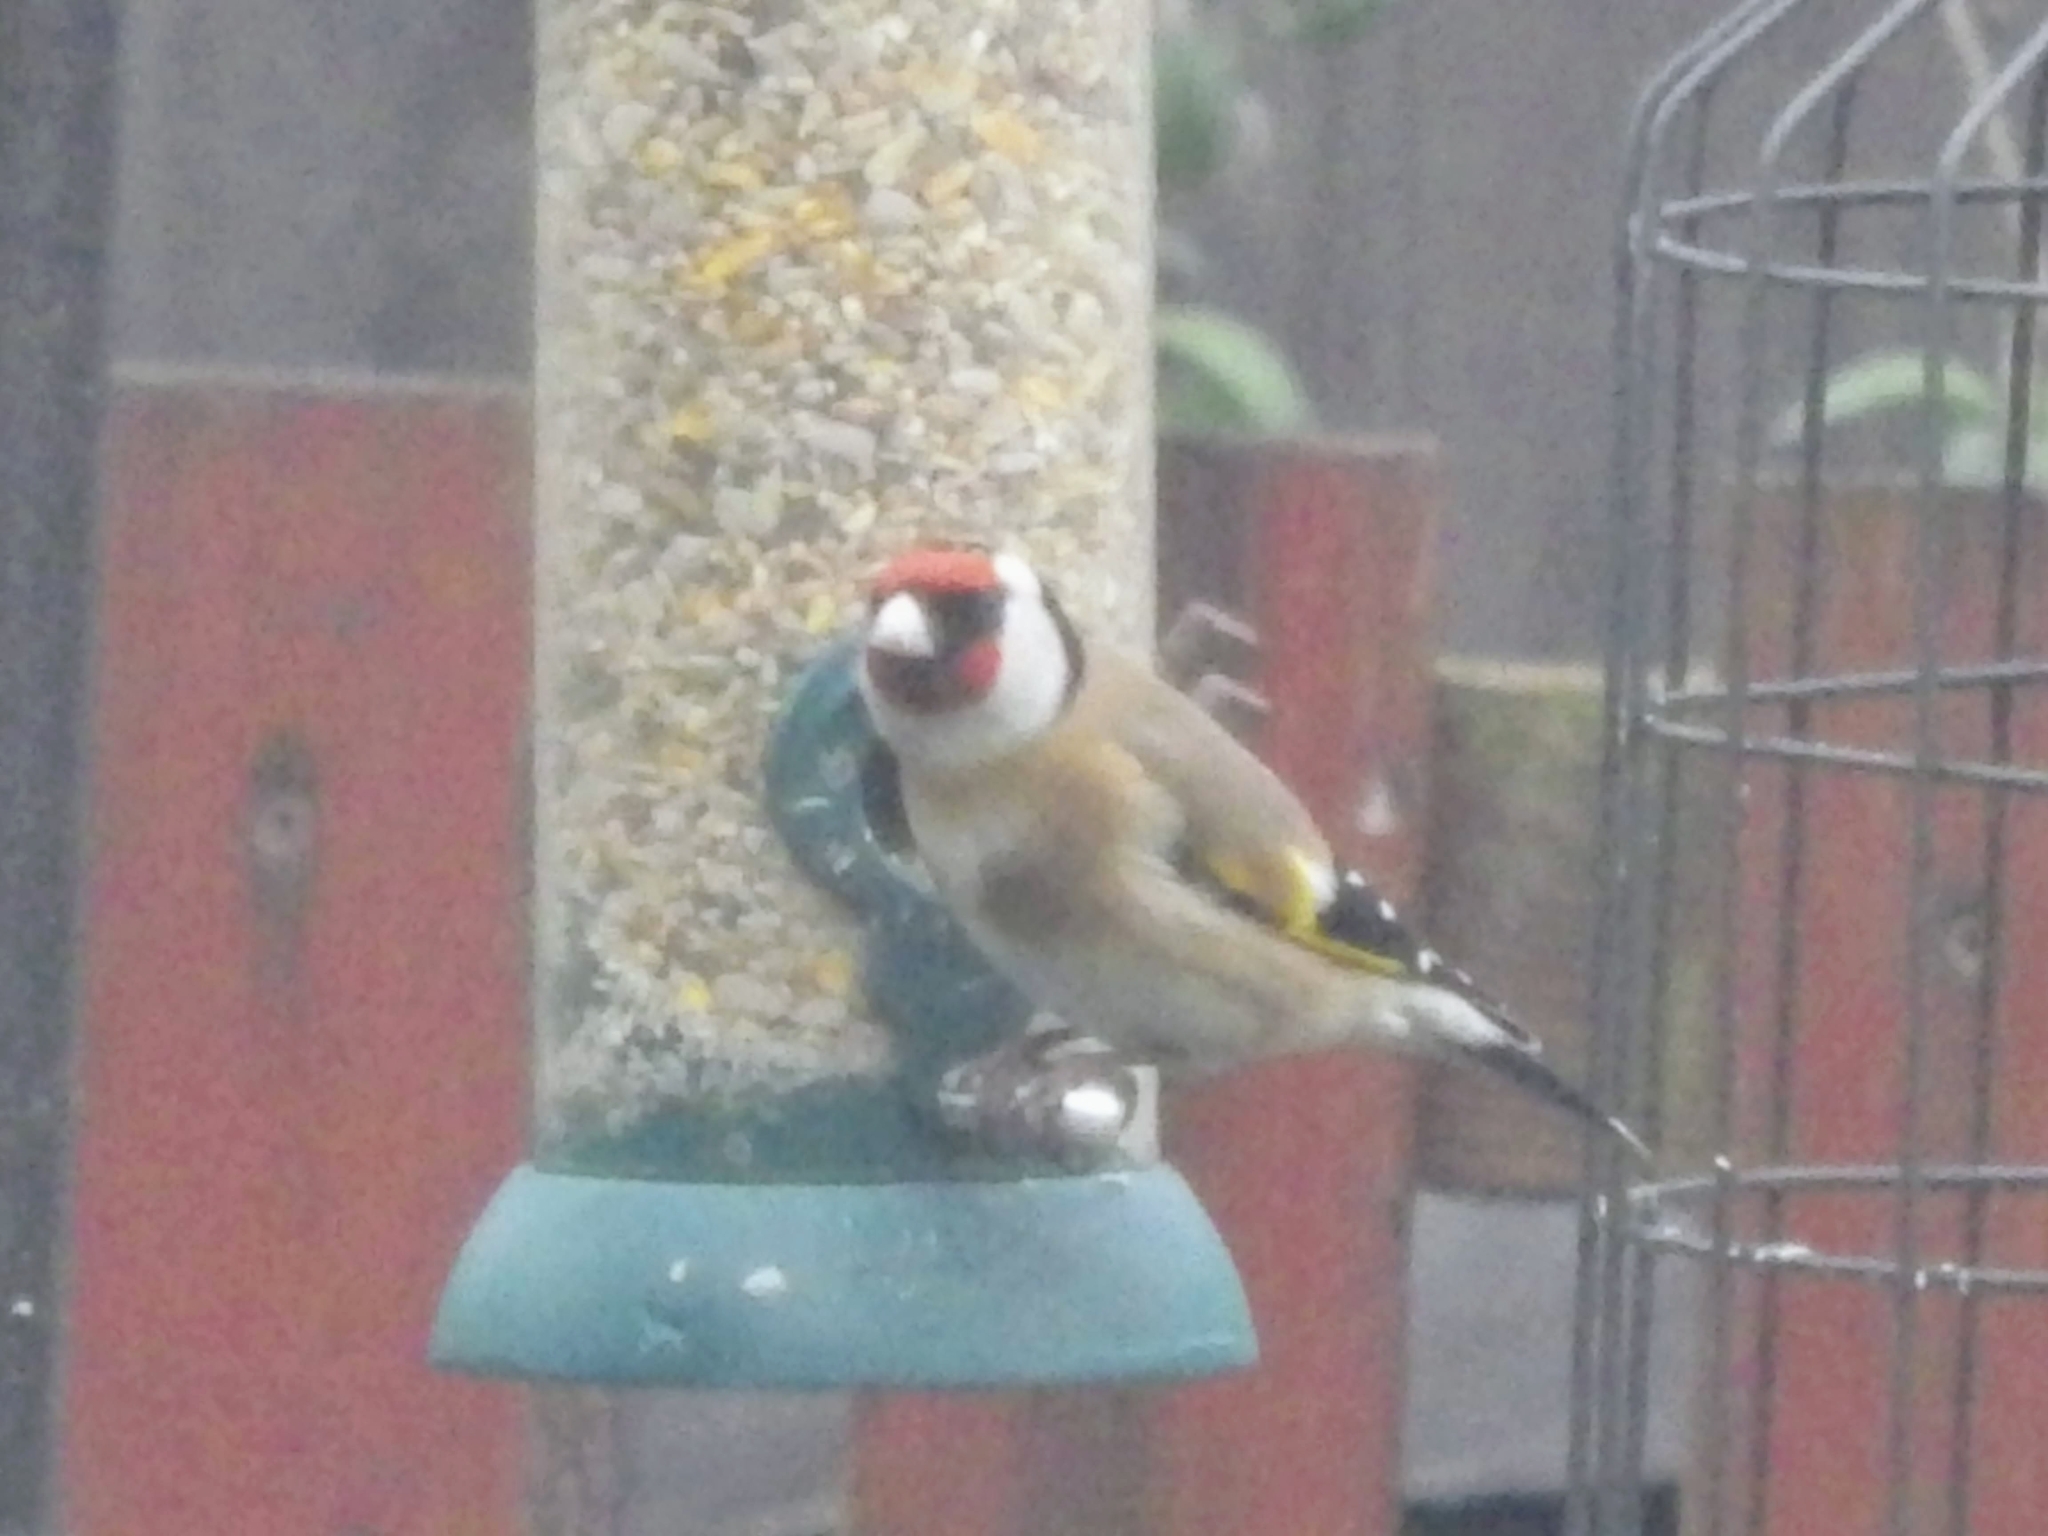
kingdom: Animalia
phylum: Chordata
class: Aves
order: Passeriformes
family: Fringillidae
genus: Carduelis
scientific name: Carduelis carduelis
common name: European goldfinch
